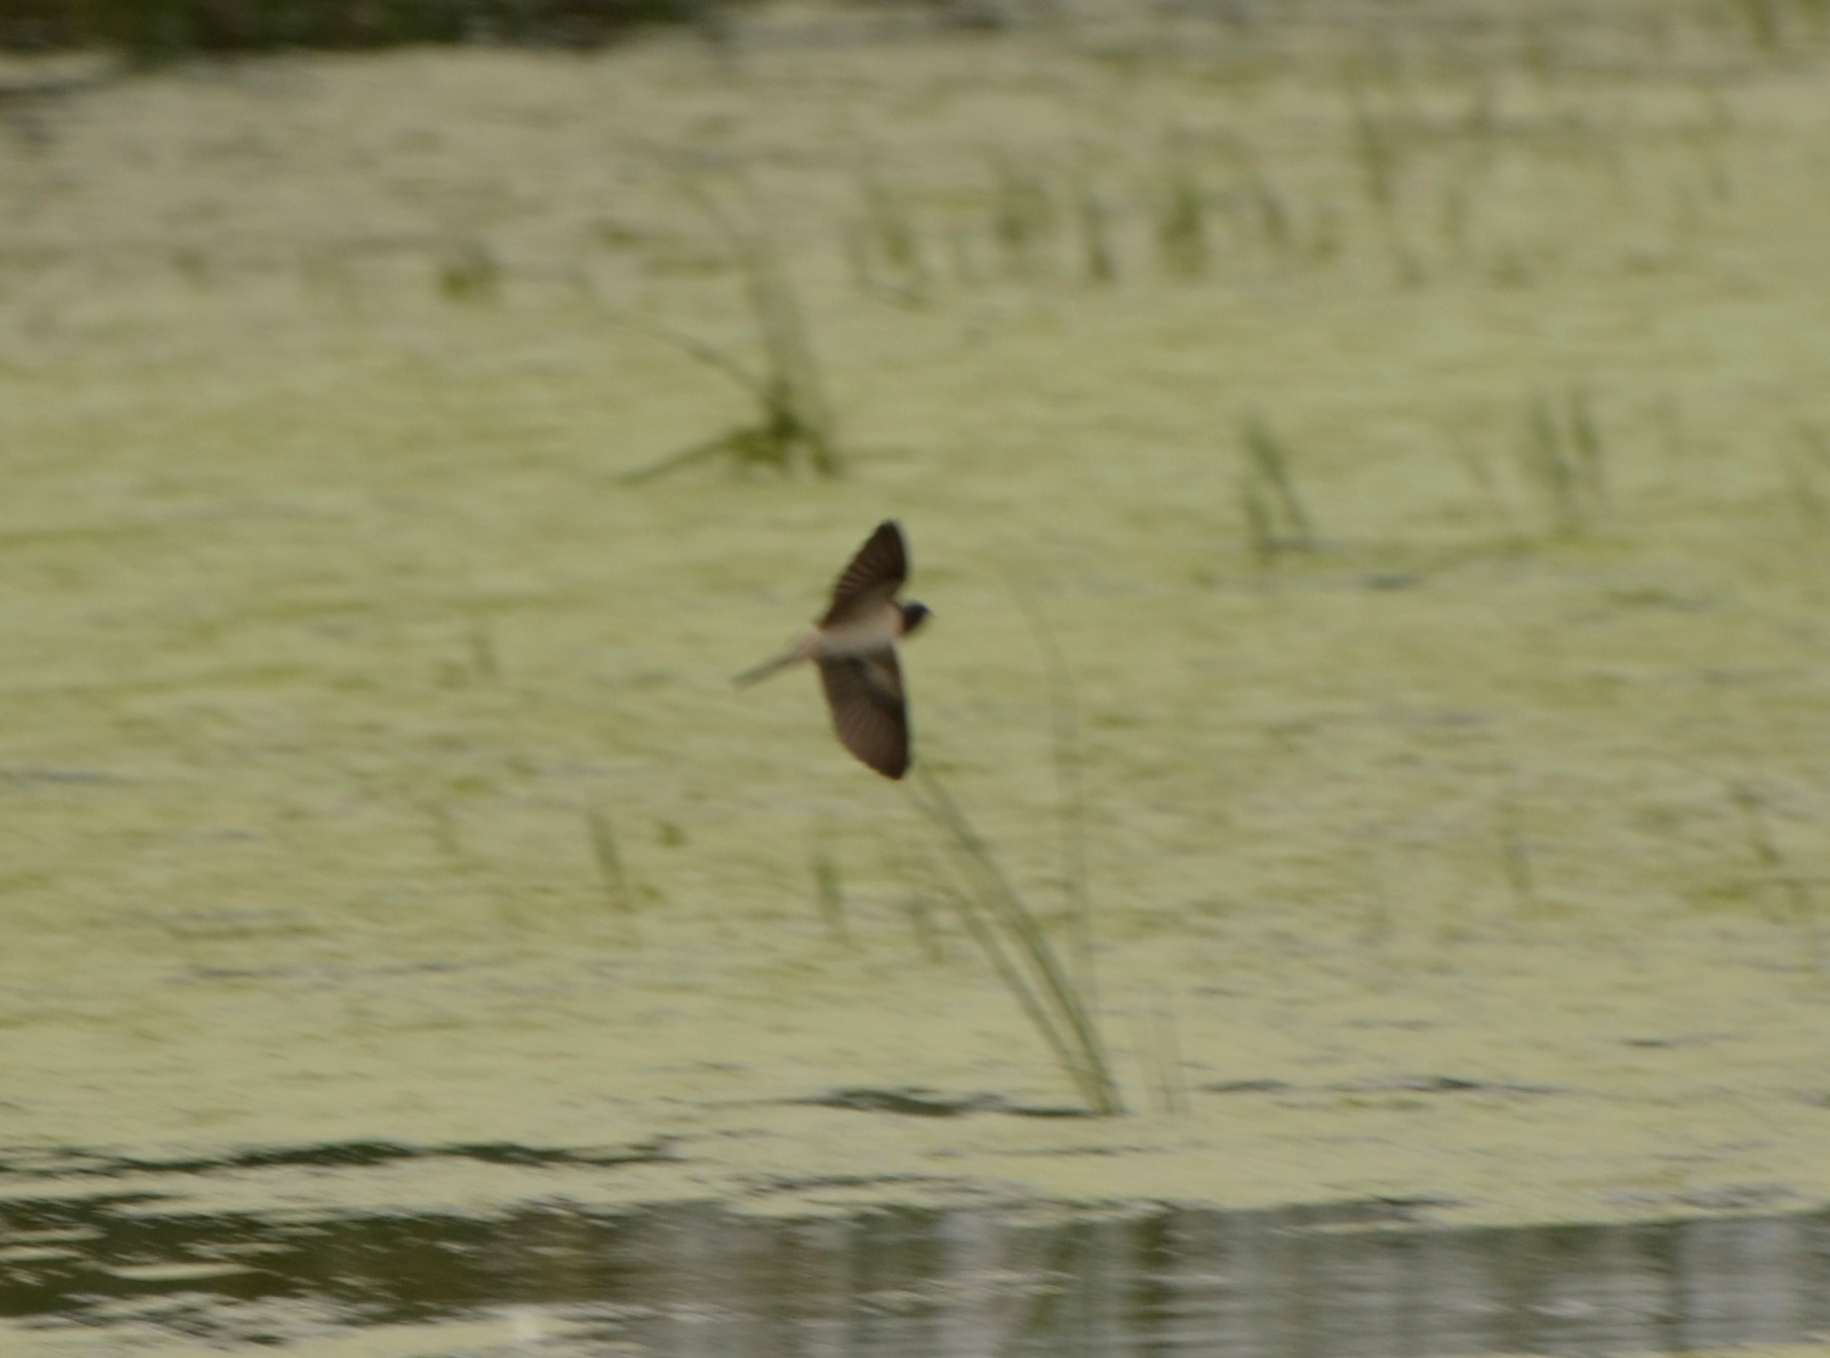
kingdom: Animalia
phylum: Chordata
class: Aves
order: Passeriformes
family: Hirundinidae
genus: Hirundo
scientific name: Hirundo rustica
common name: Barn swallow
